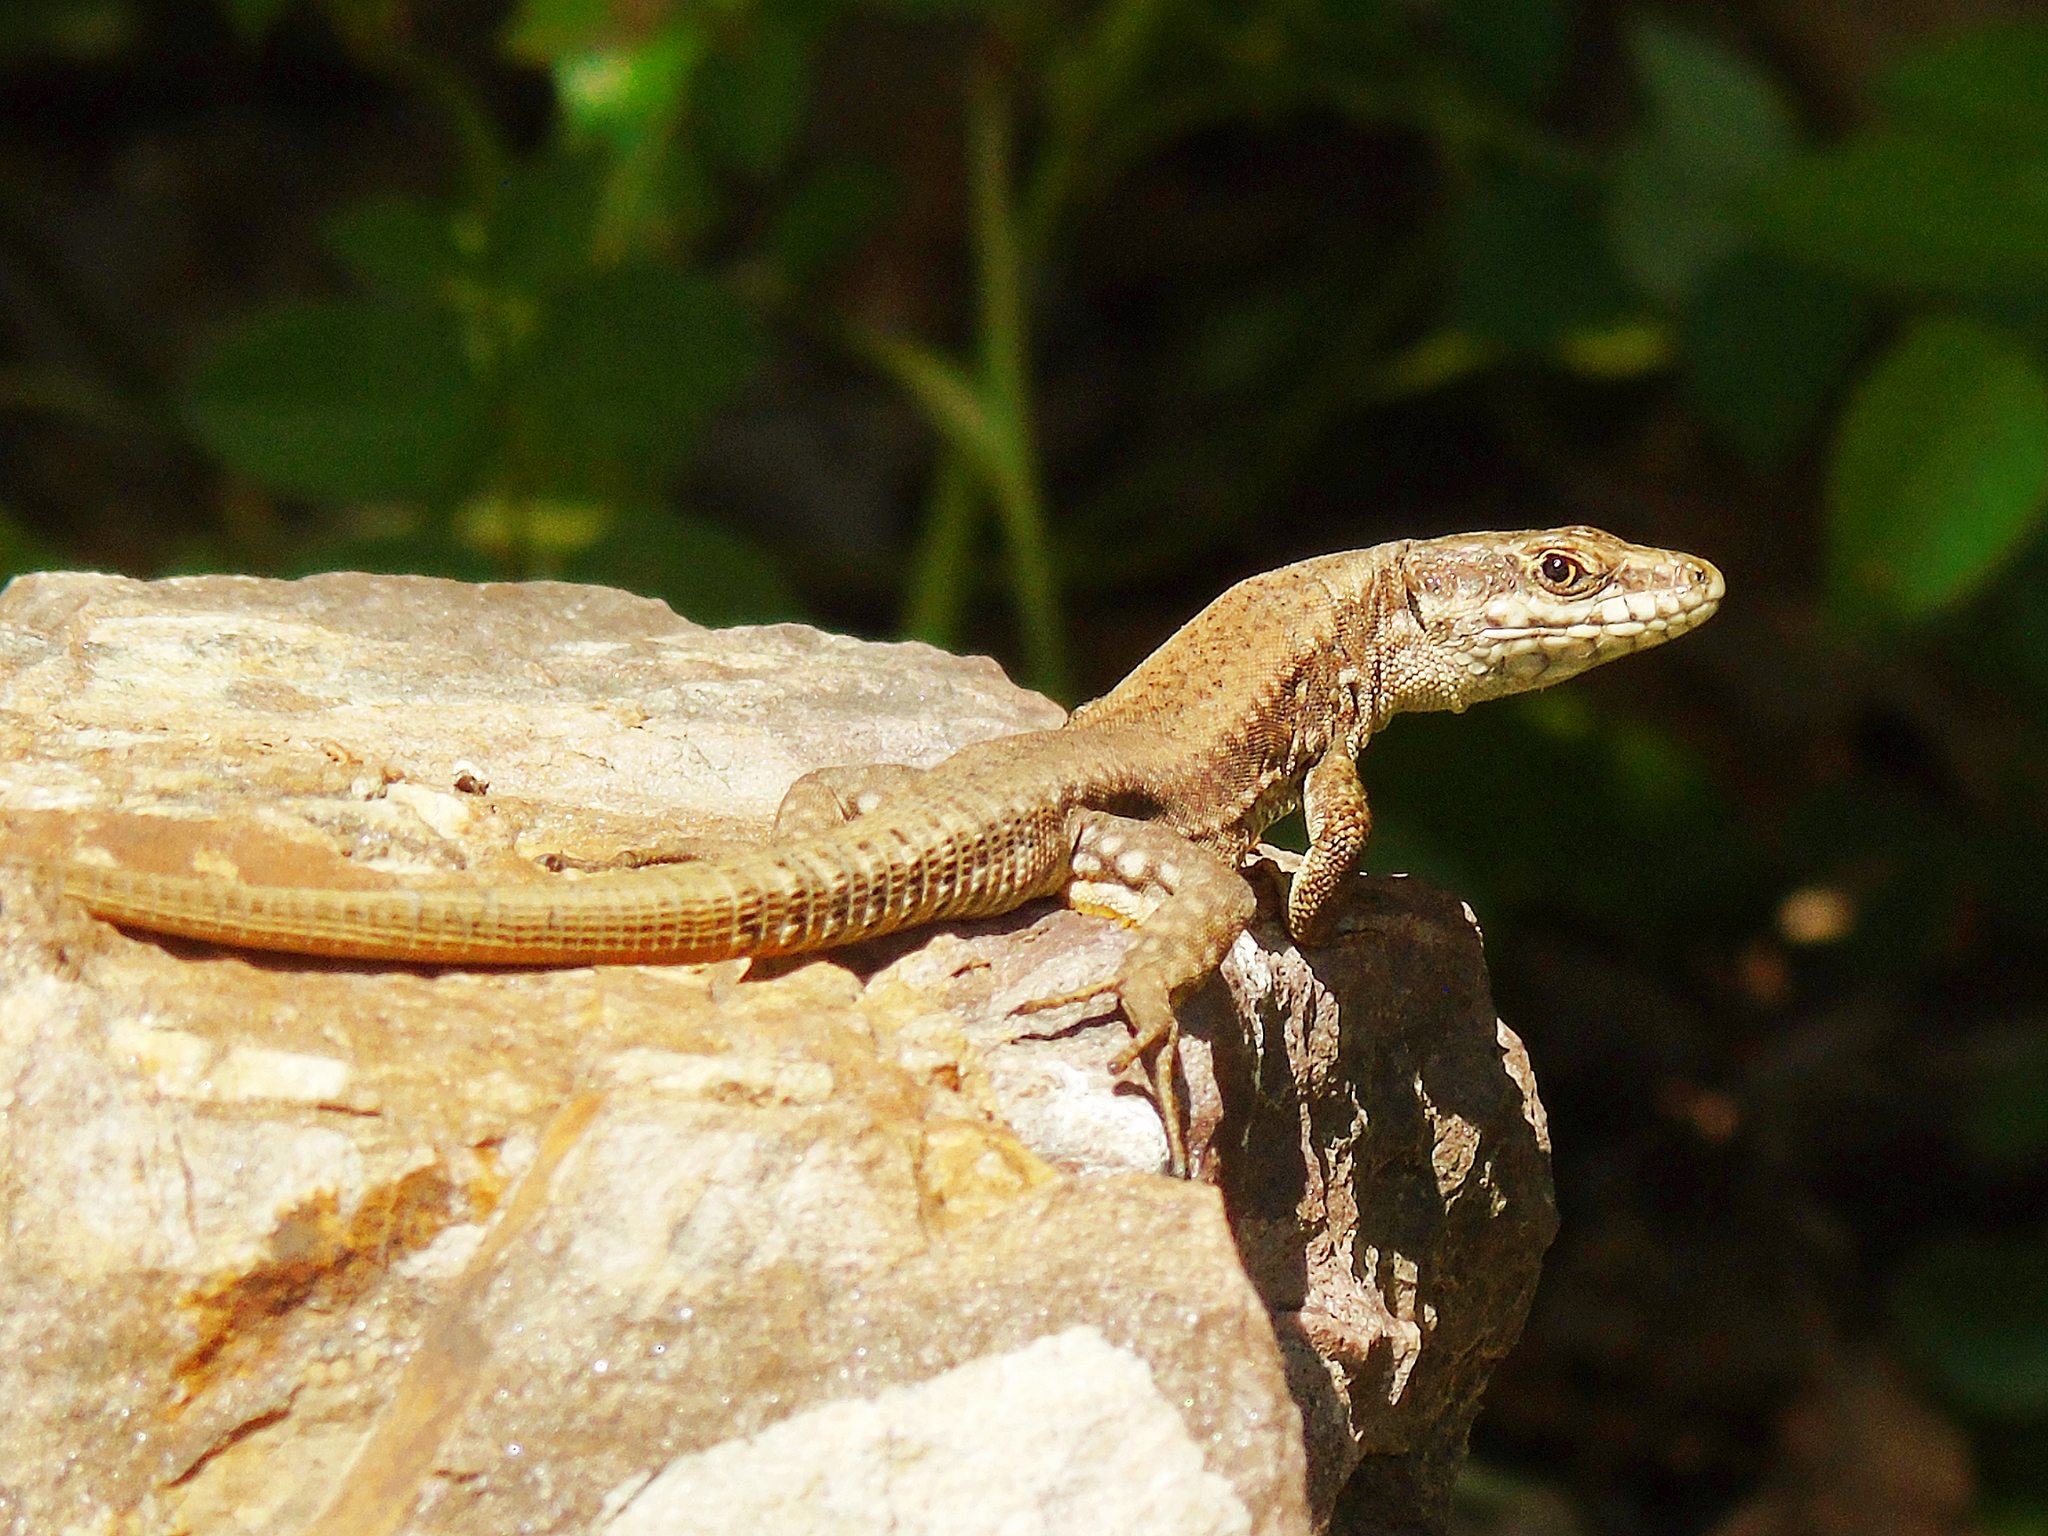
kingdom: Animalia
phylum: Chordata
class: Squamata
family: Lacertidae
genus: Podarcis
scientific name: Podarcis muralis
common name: Common wall lizard
